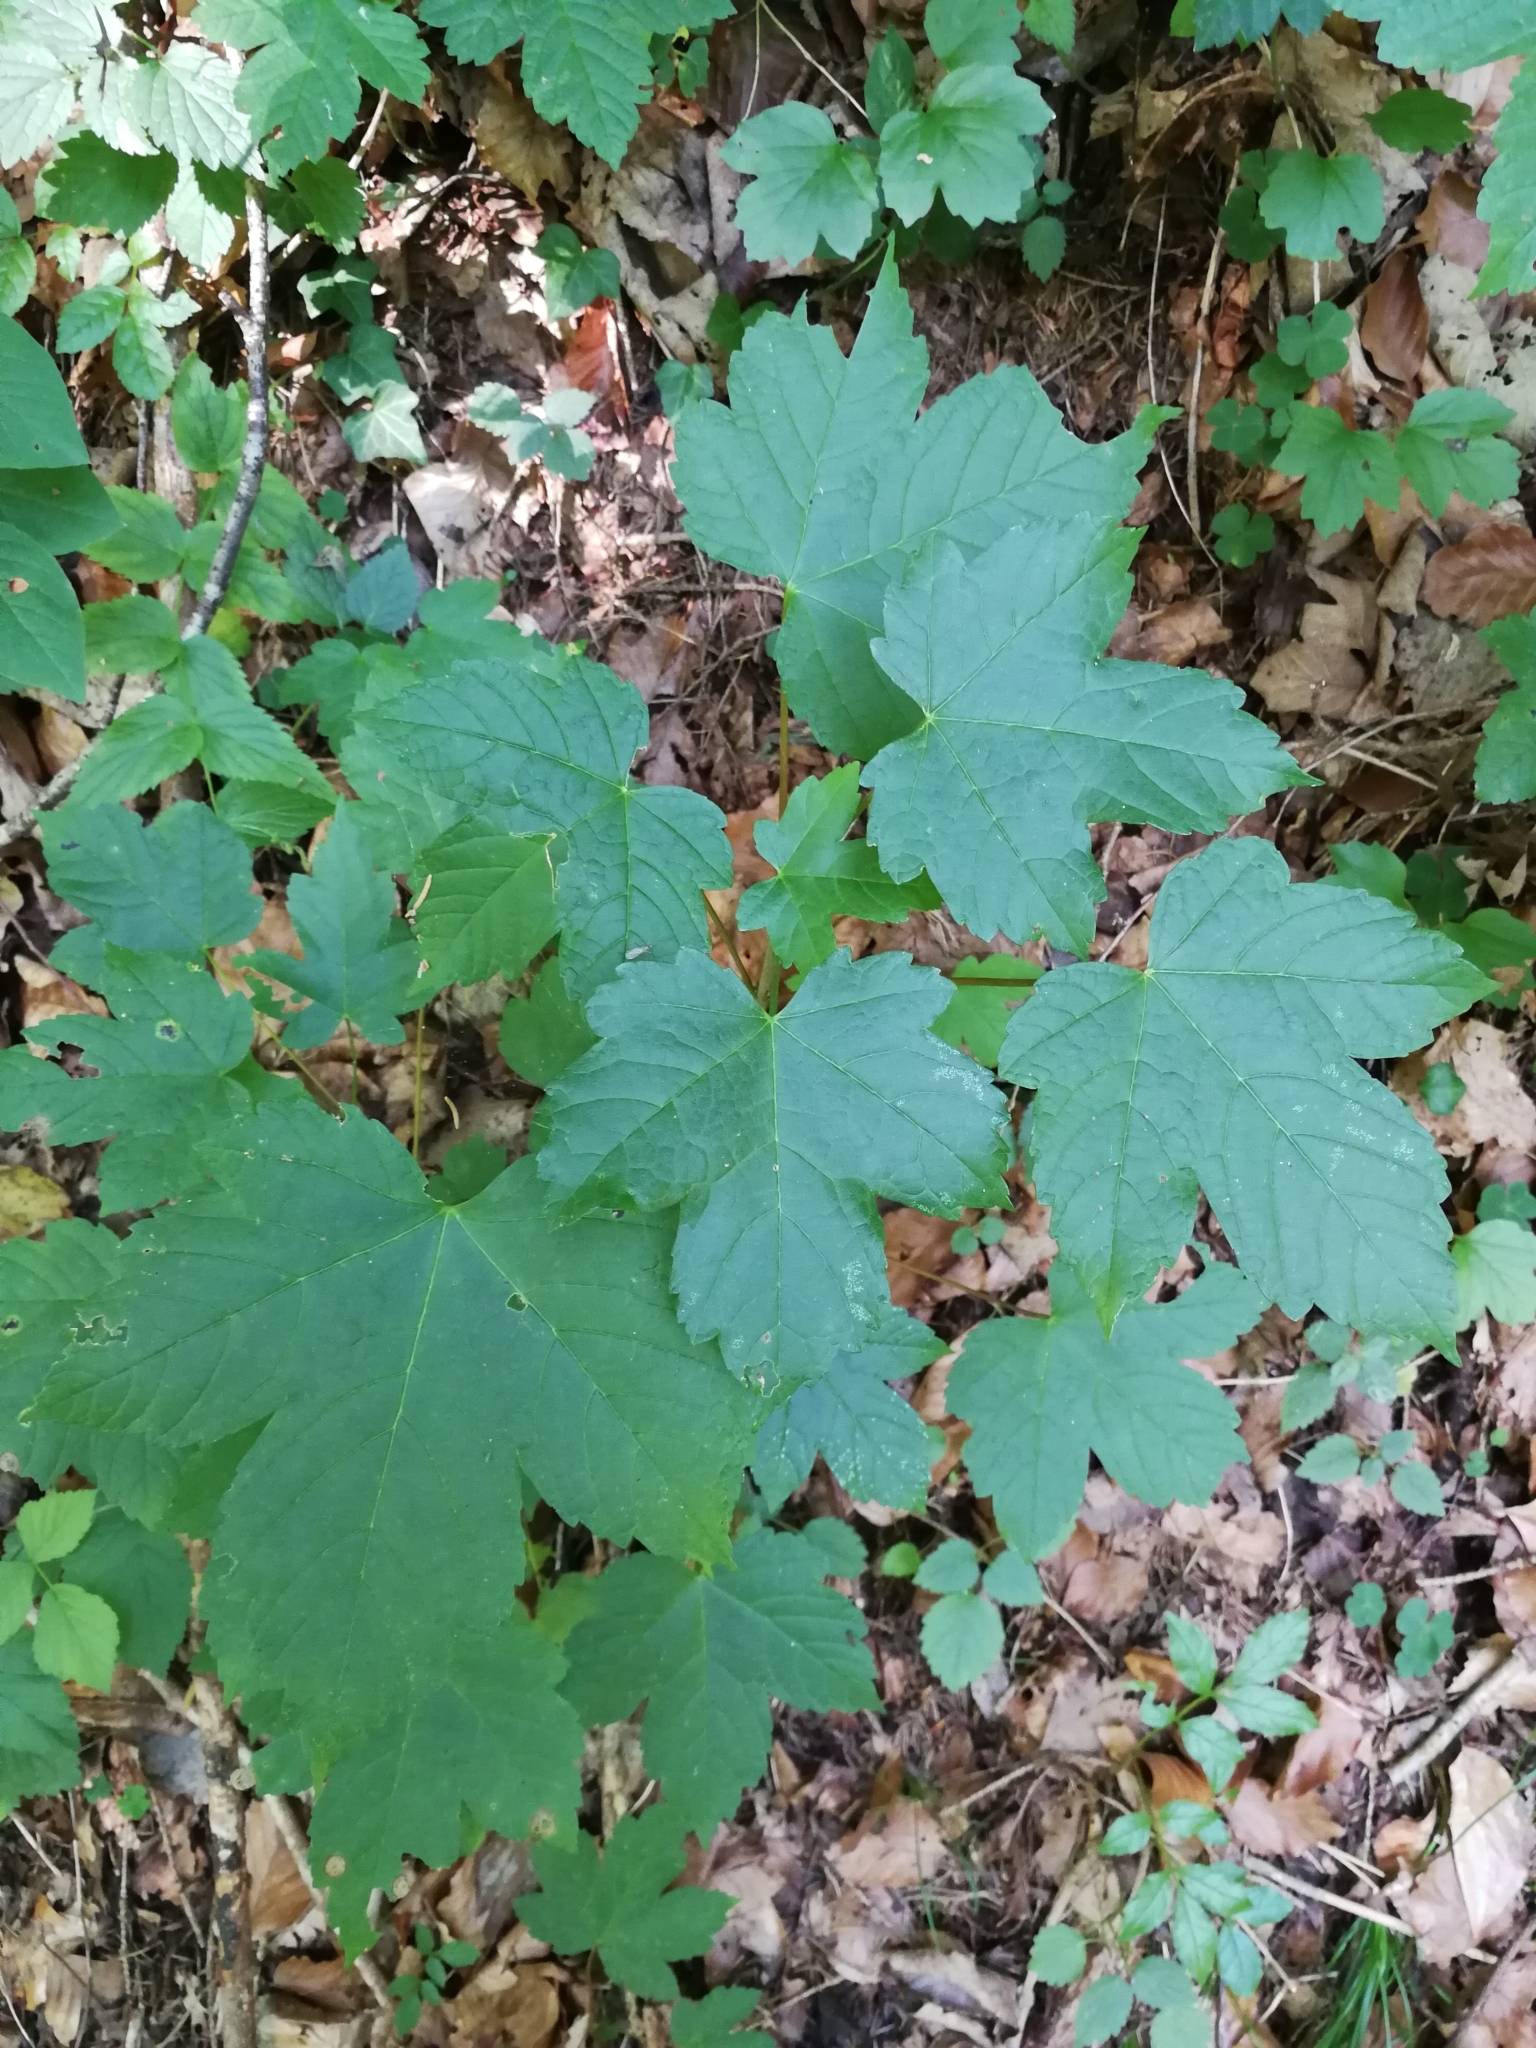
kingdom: Plantae
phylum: Tracheophyta
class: Magnoliopsida
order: Sapindales
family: Sapindaceae
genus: Acer
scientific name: Acer pseudoplatanus
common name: Sycamore
